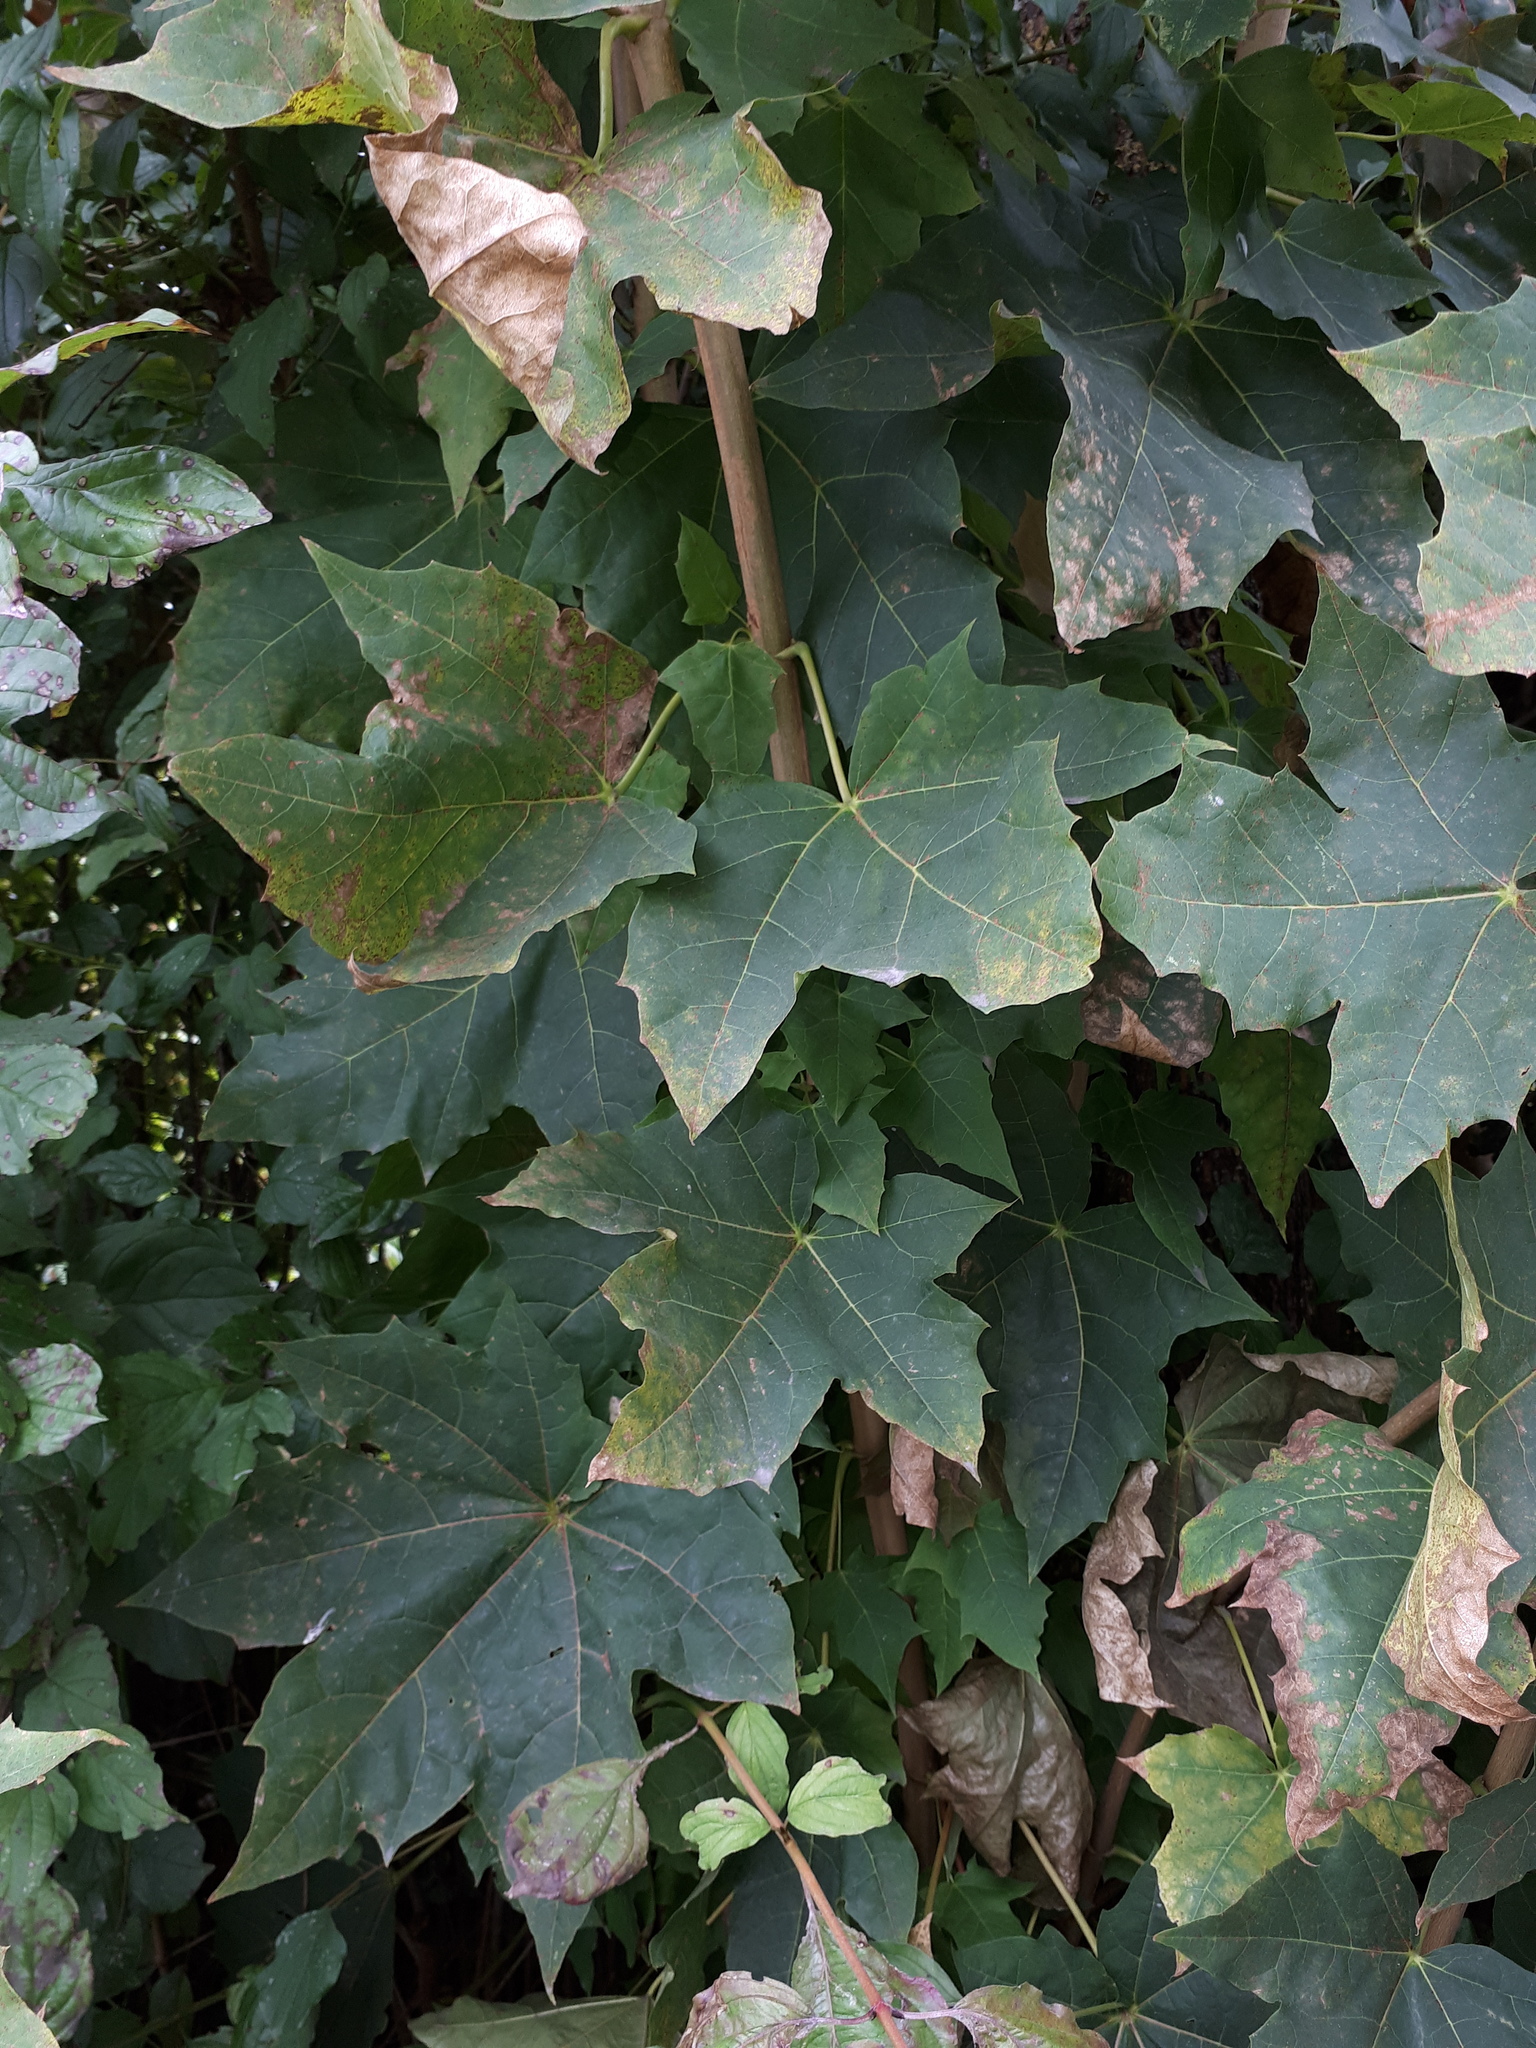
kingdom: Plantae
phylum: Tracheophyta
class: Magnoliopsida
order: Sapindales
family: Sapindaceae
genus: Acer
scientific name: Acer platanoides
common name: Norway maple
